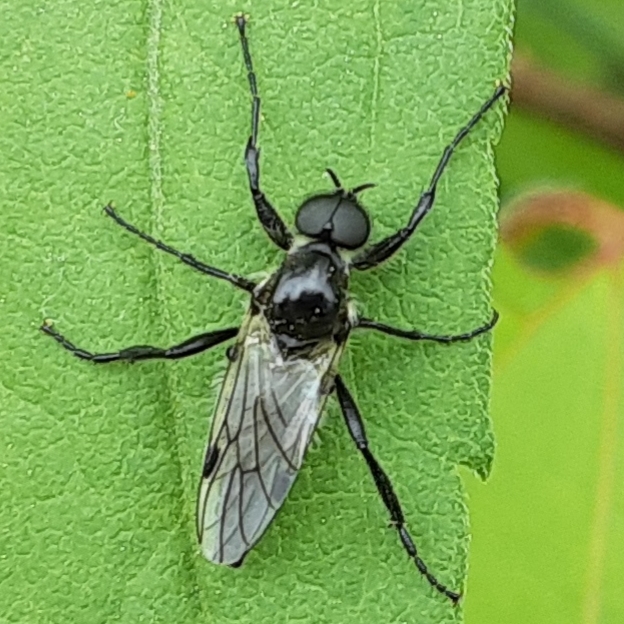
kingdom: Animalia
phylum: Arthropoda
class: Insecta
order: Diptera
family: Bibionidae
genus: Bibio
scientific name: Bibio albipennis
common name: White-winged march fly
